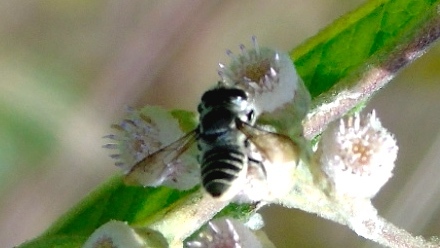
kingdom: Animalia
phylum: Arthropoda
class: Insecta
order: Hymenoptera
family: Megachilidae
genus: Megachile
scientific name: Megachile
